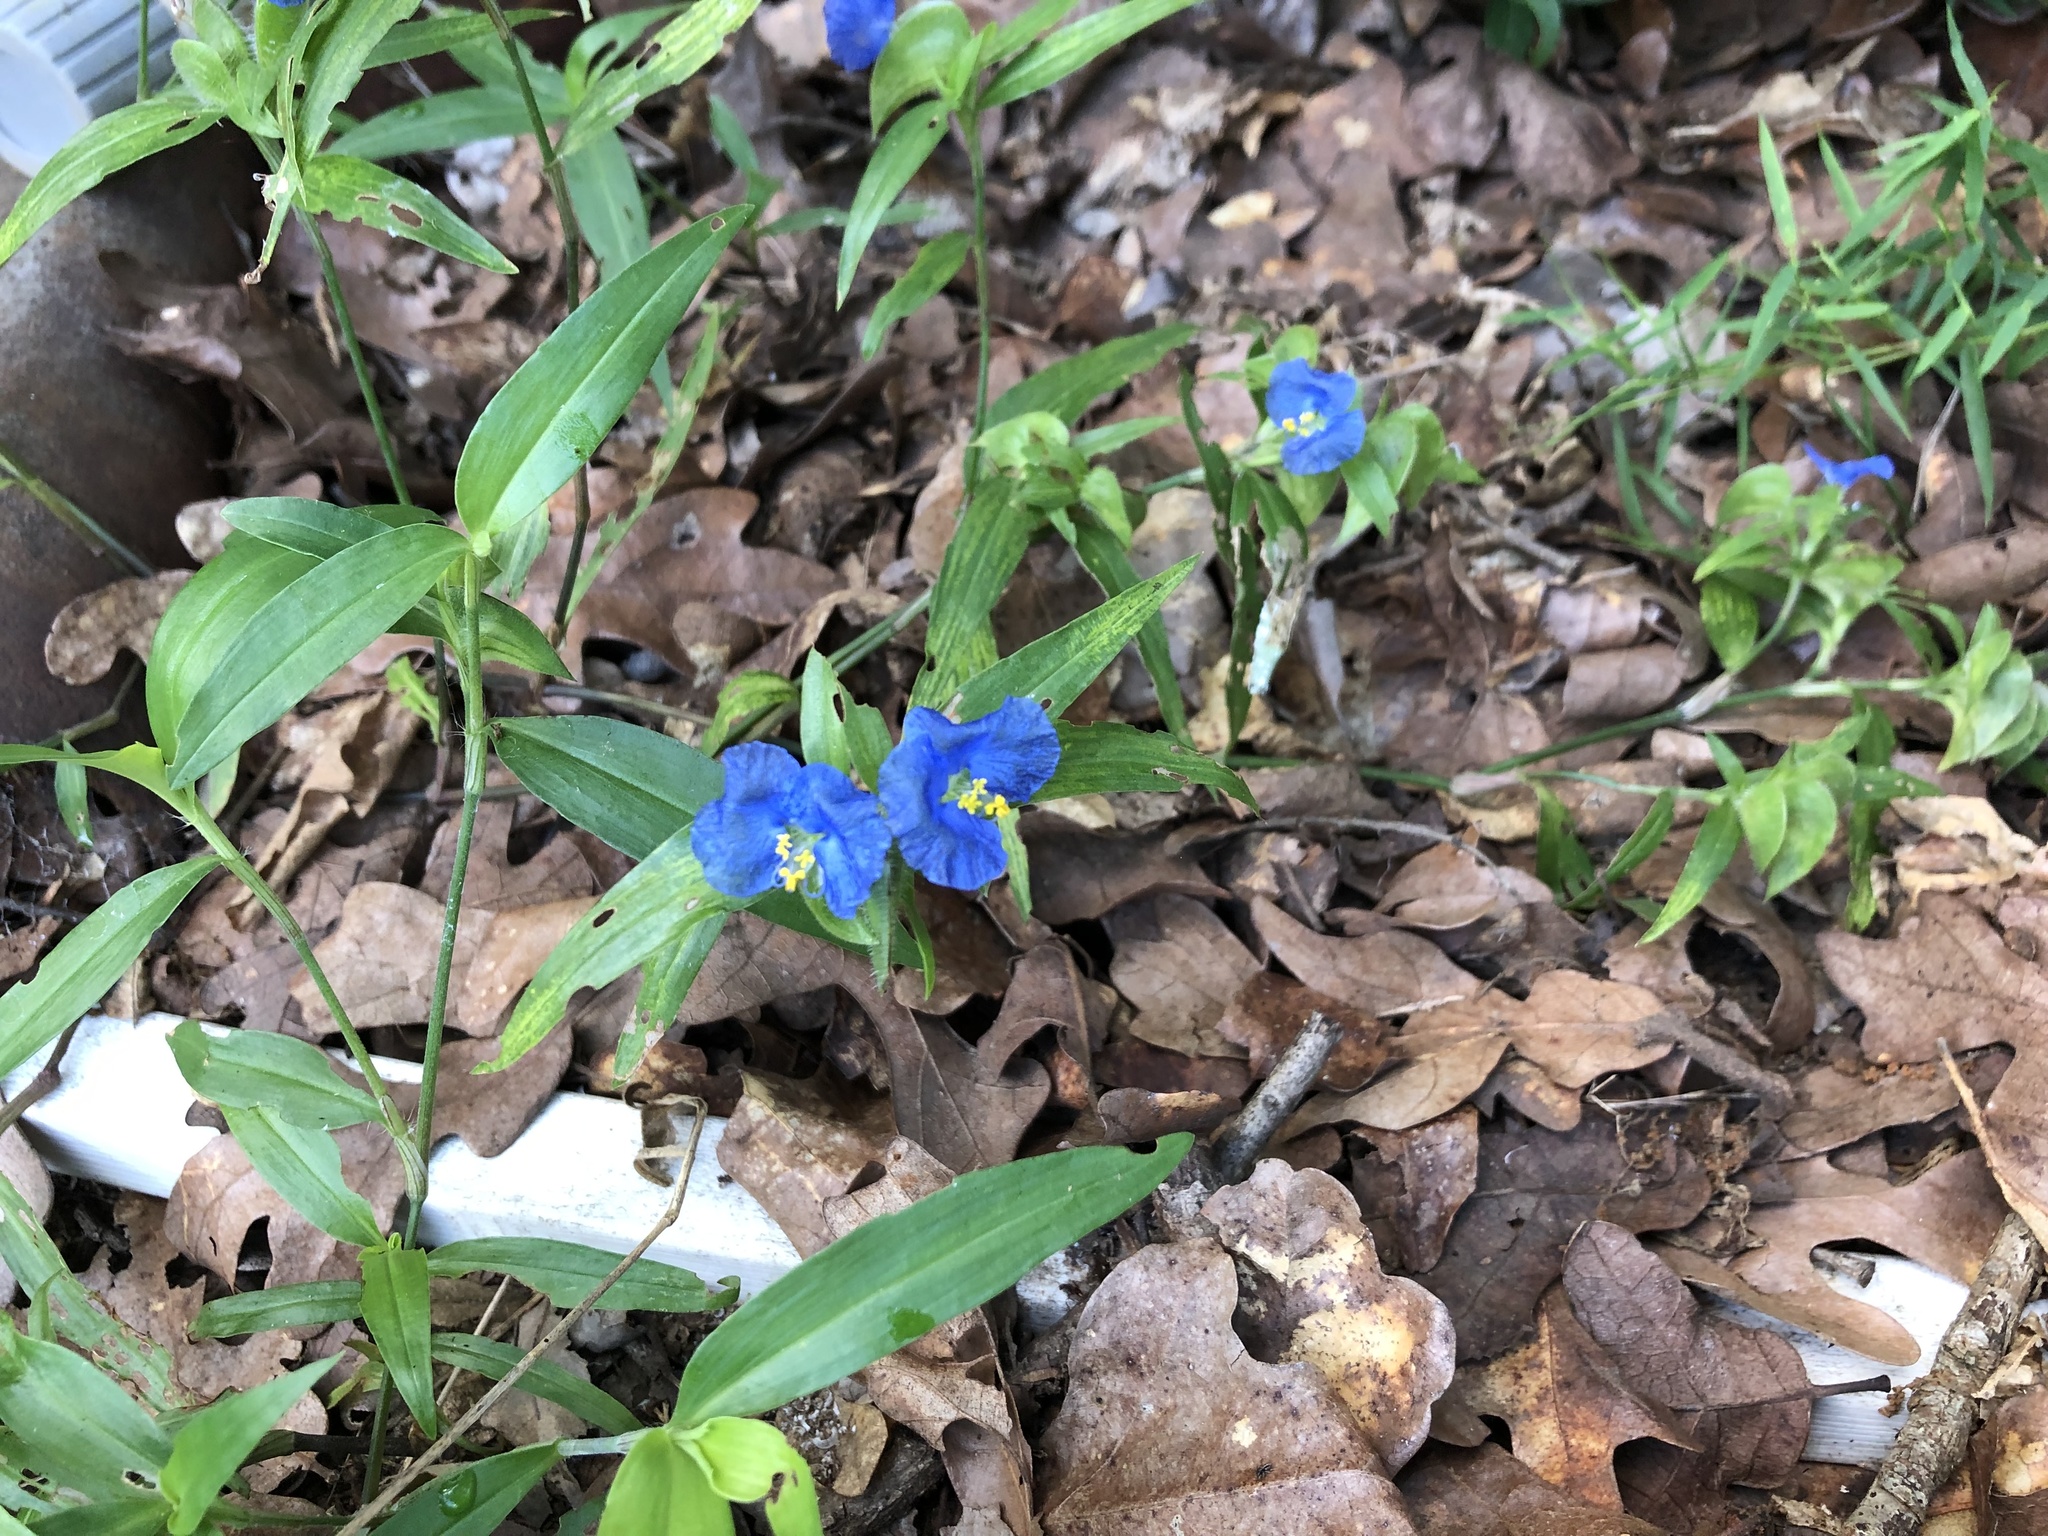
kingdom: Plantae
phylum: Tracheophyta
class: Liliopsida
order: Commelinales
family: Commelinaceae
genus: Commelina
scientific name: Commelina erecta
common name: Blousel blommetjie
